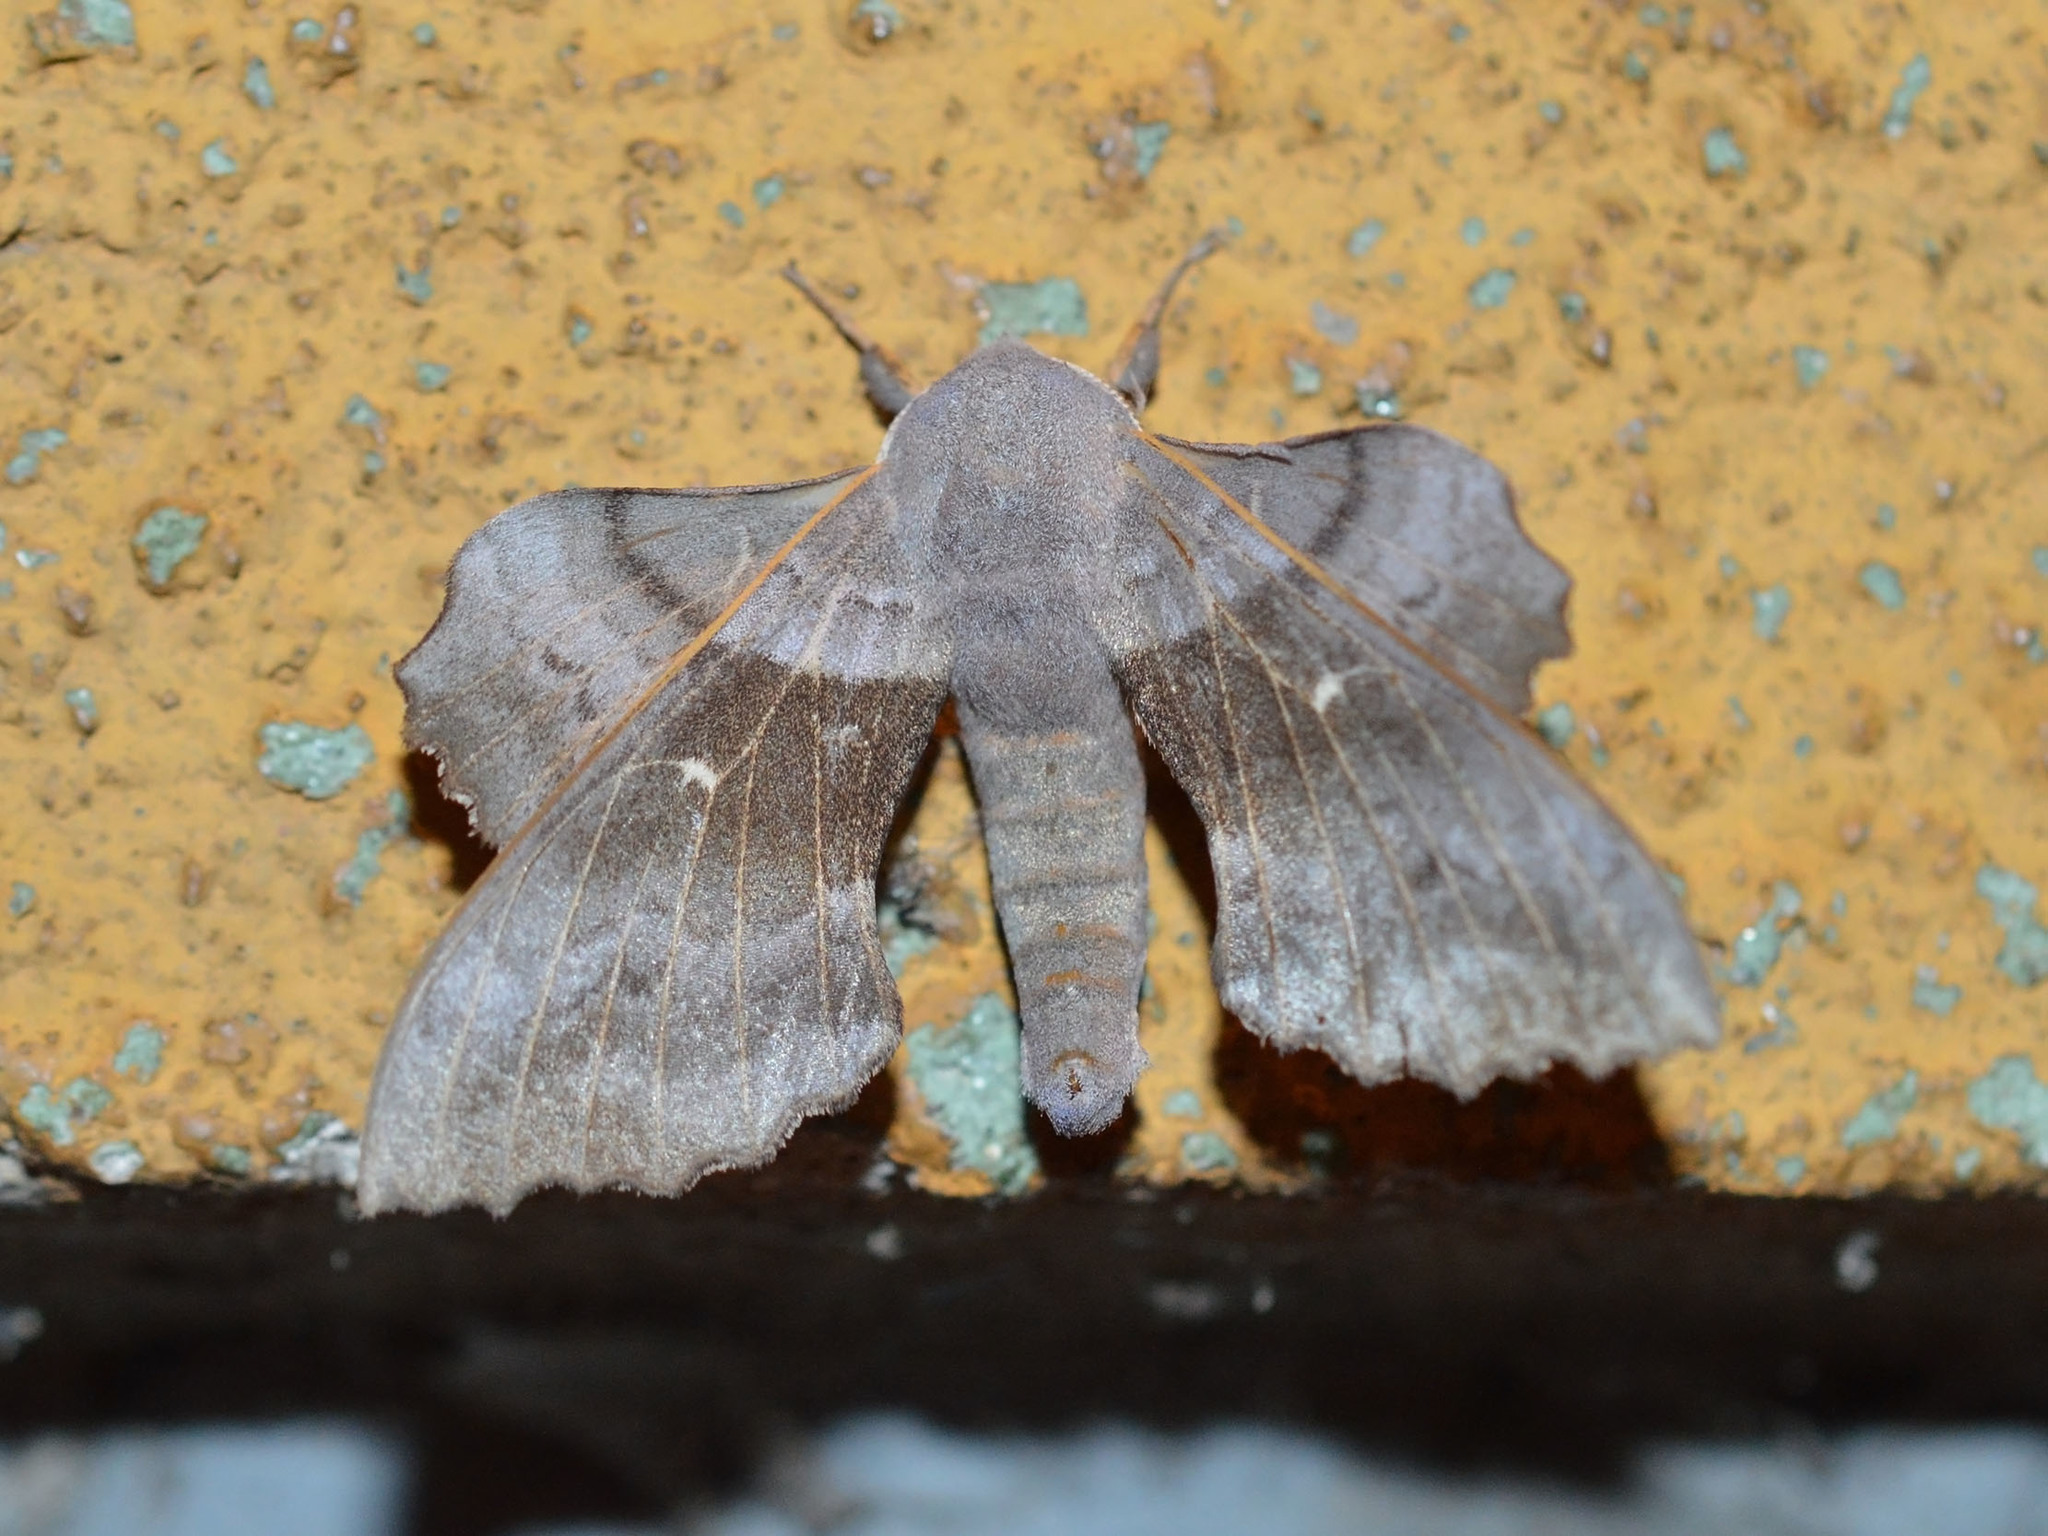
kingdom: Animalia
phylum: Arthropoda
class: Insecta
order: Lepidoptera
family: Sphingidae
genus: Laothoe
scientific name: Laothoe populi
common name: Poplar hawk-moth
